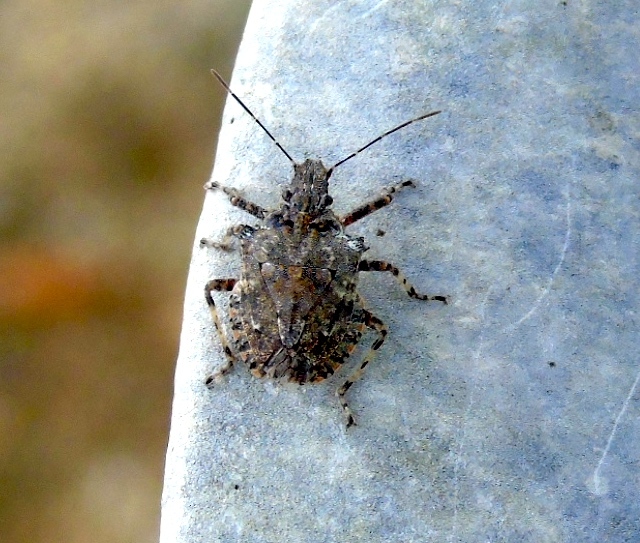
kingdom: Animalia
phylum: Arthropoda
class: Insecta
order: Hemiptera
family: Pentatomidae
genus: Brochymena
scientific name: Brochymena
